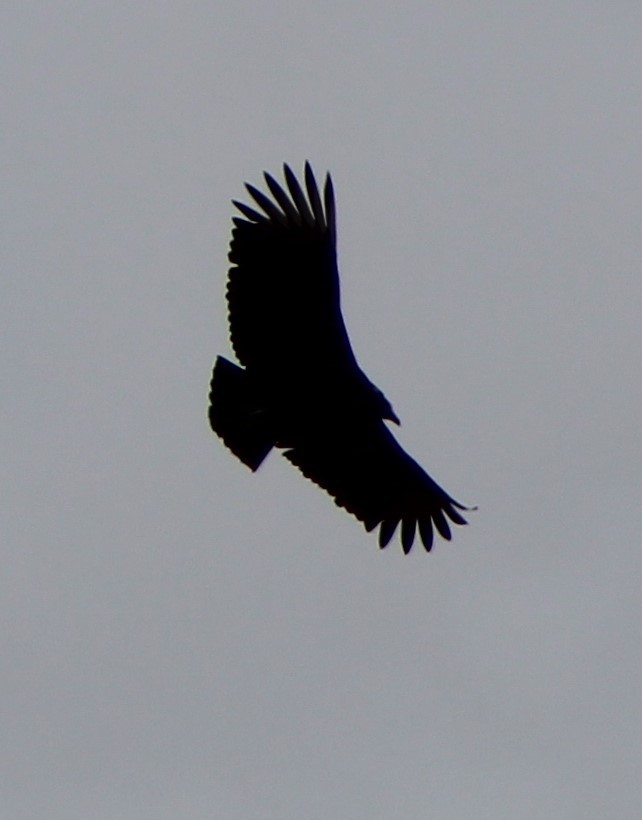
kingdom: Animalia
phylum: Chordata
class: Aves
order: Accipitriformes
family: Cathartidae
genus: Coragyps
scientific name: Coragyps atratus
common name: Black vulture
